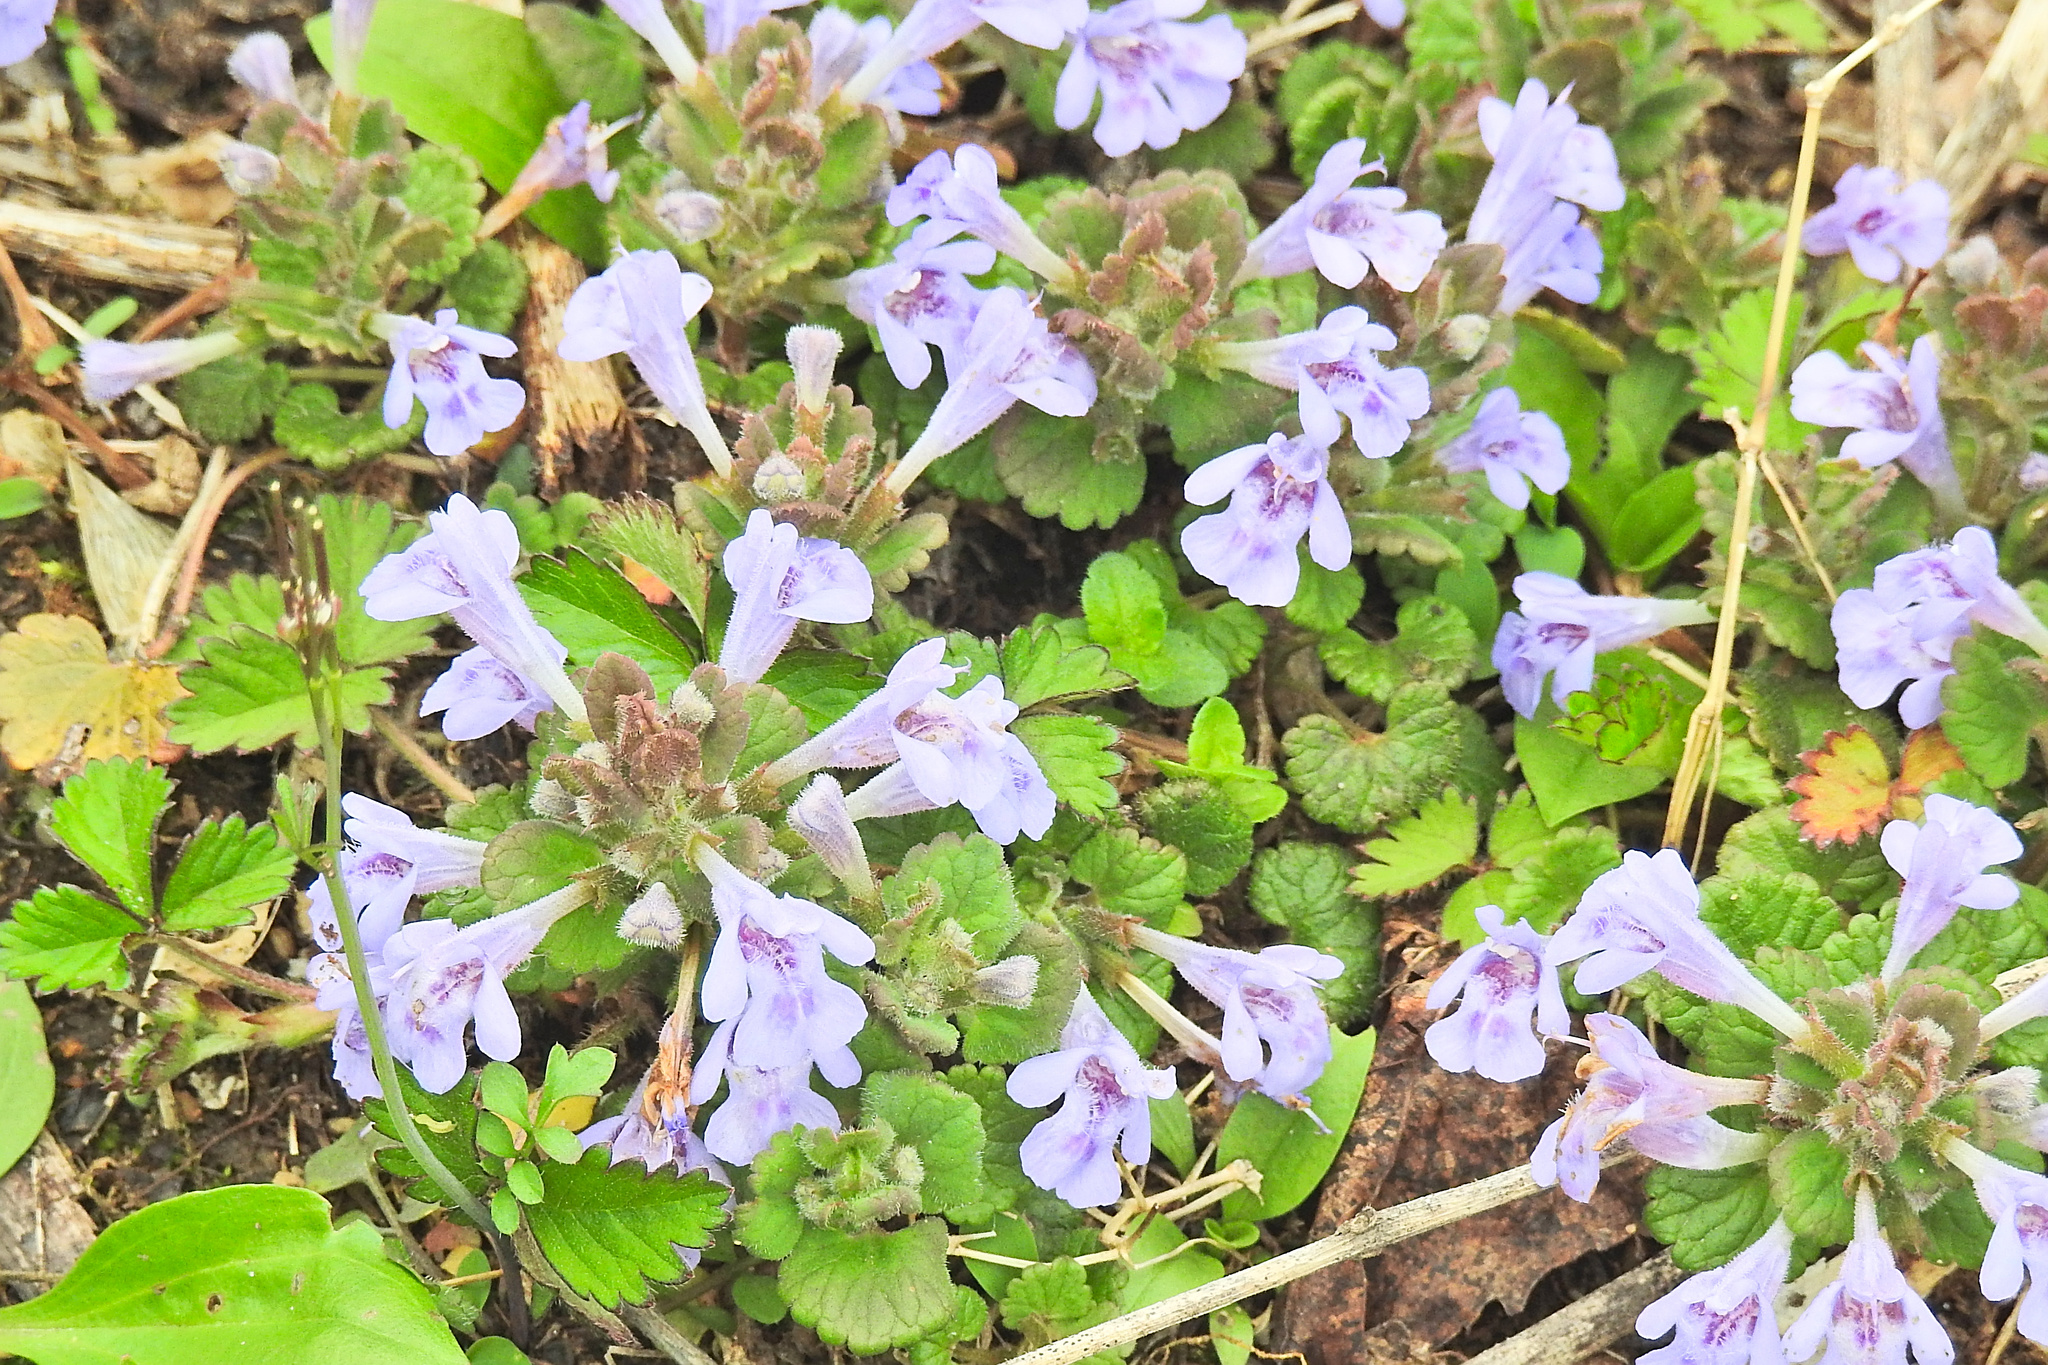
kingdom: Plantae
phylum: Tracheophyta
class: Magnoliopsida
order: Lamiales
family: Lamiaceae
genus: Glechoma
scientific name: Glechoma hederacea
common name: Ground ivy
